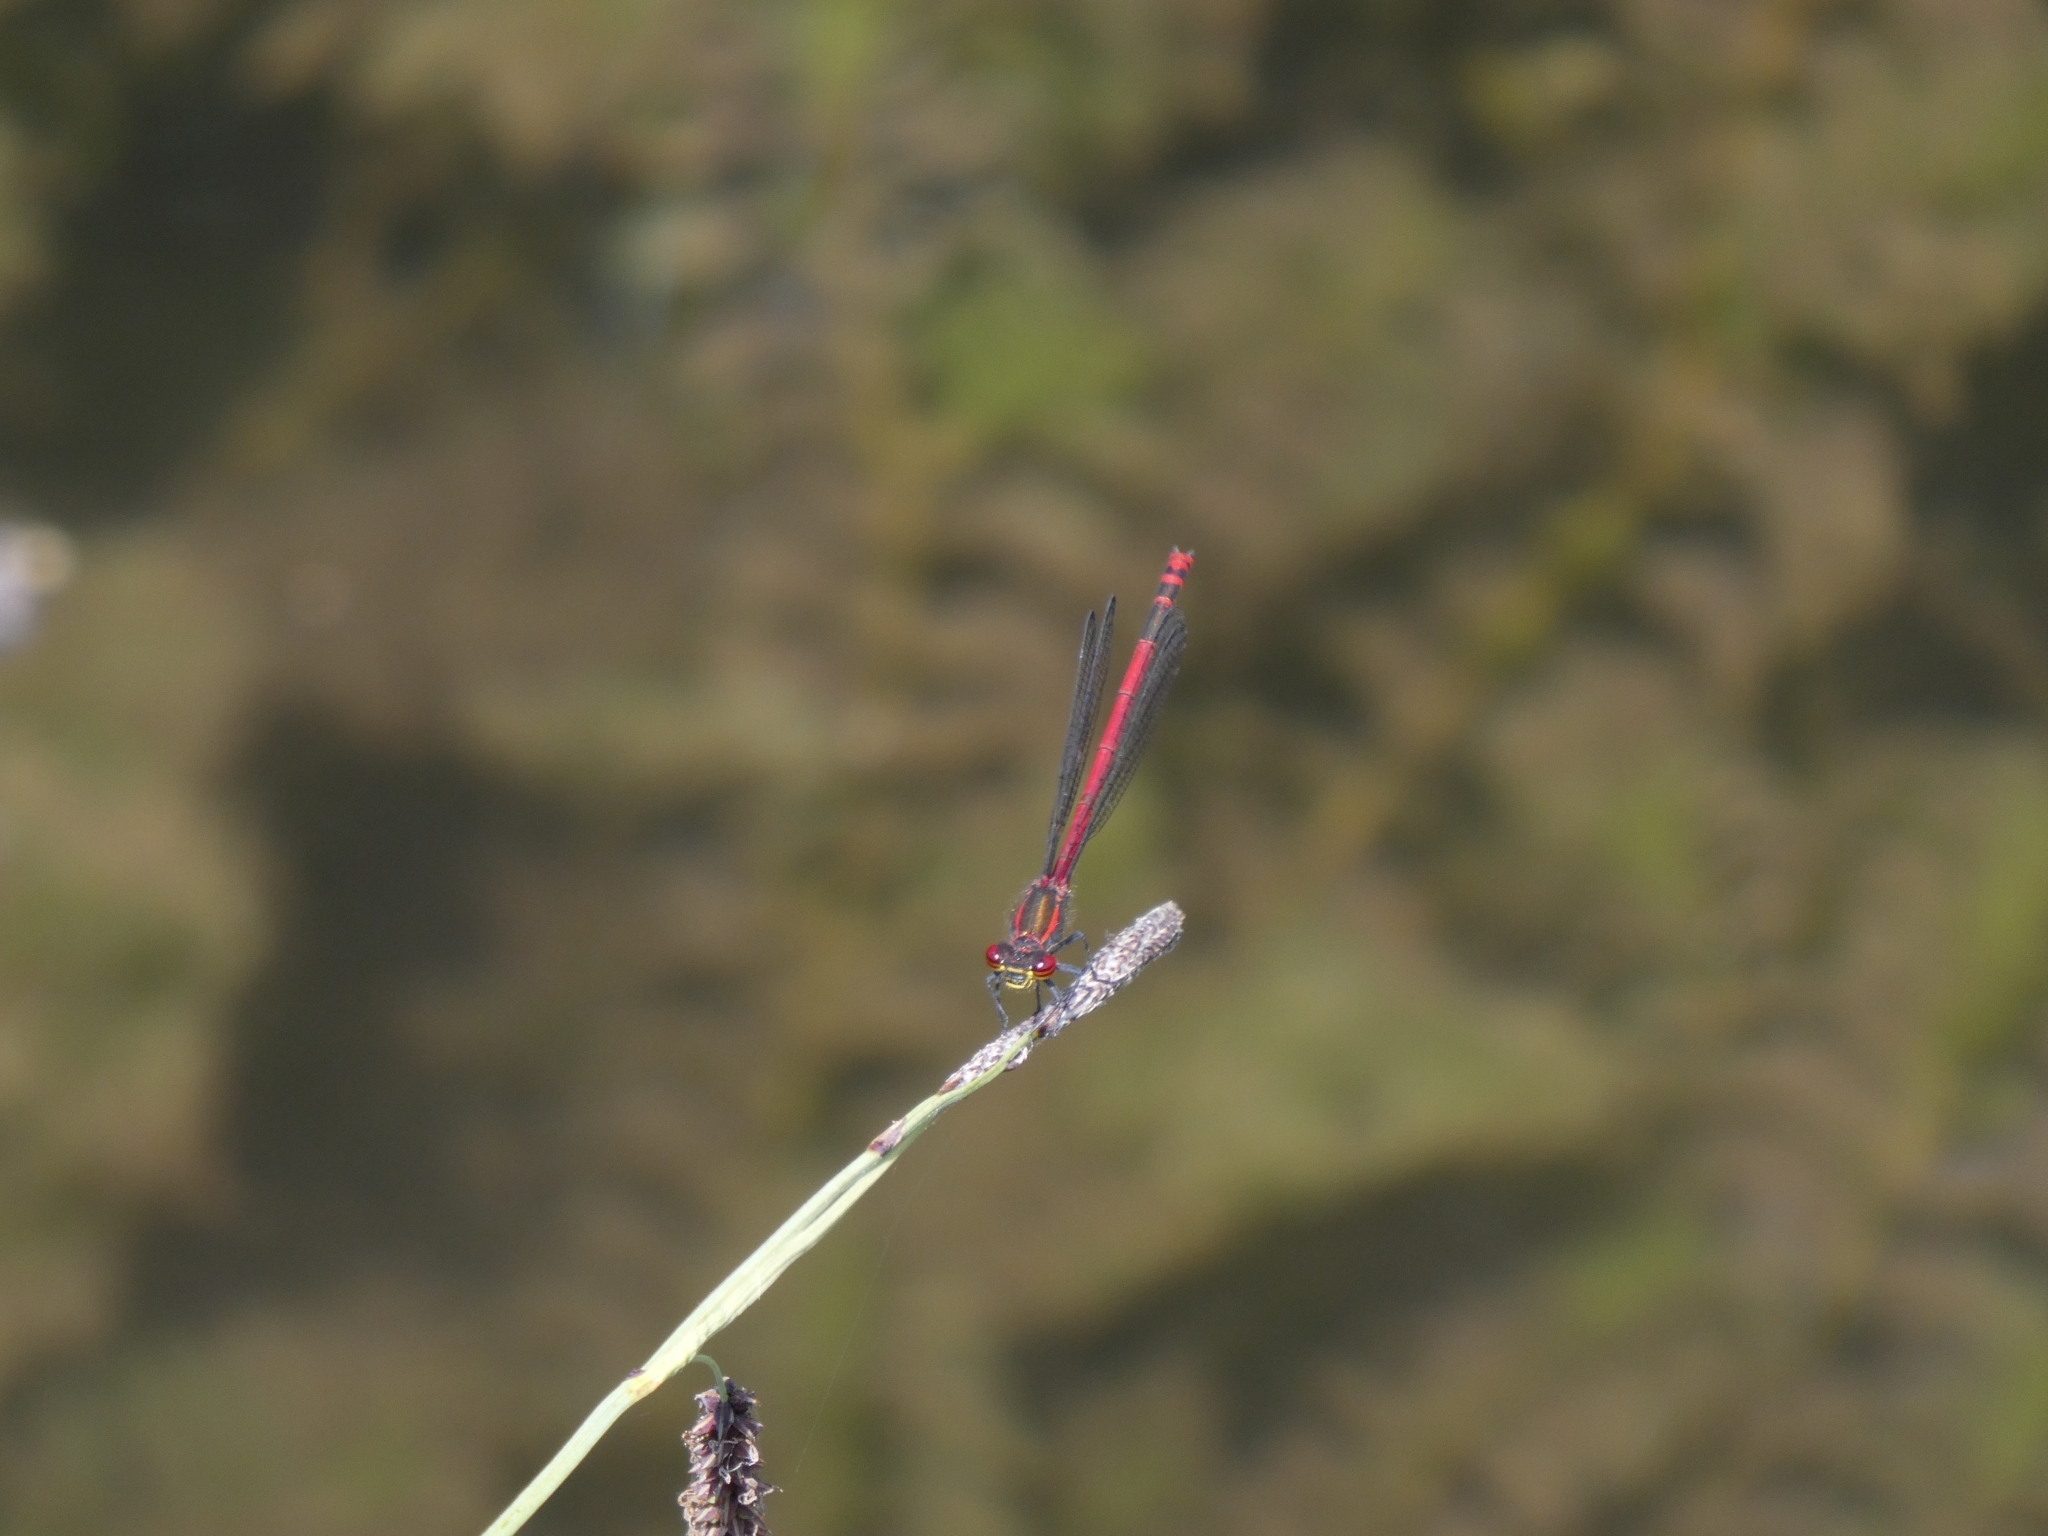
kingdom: Animalia
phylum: Arthropoda
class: Insecta
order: Odonata
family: Coenagrionidae
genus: Pyrrhosoma
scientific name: Pyrrhosoma nymphula
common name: Large red damsel
